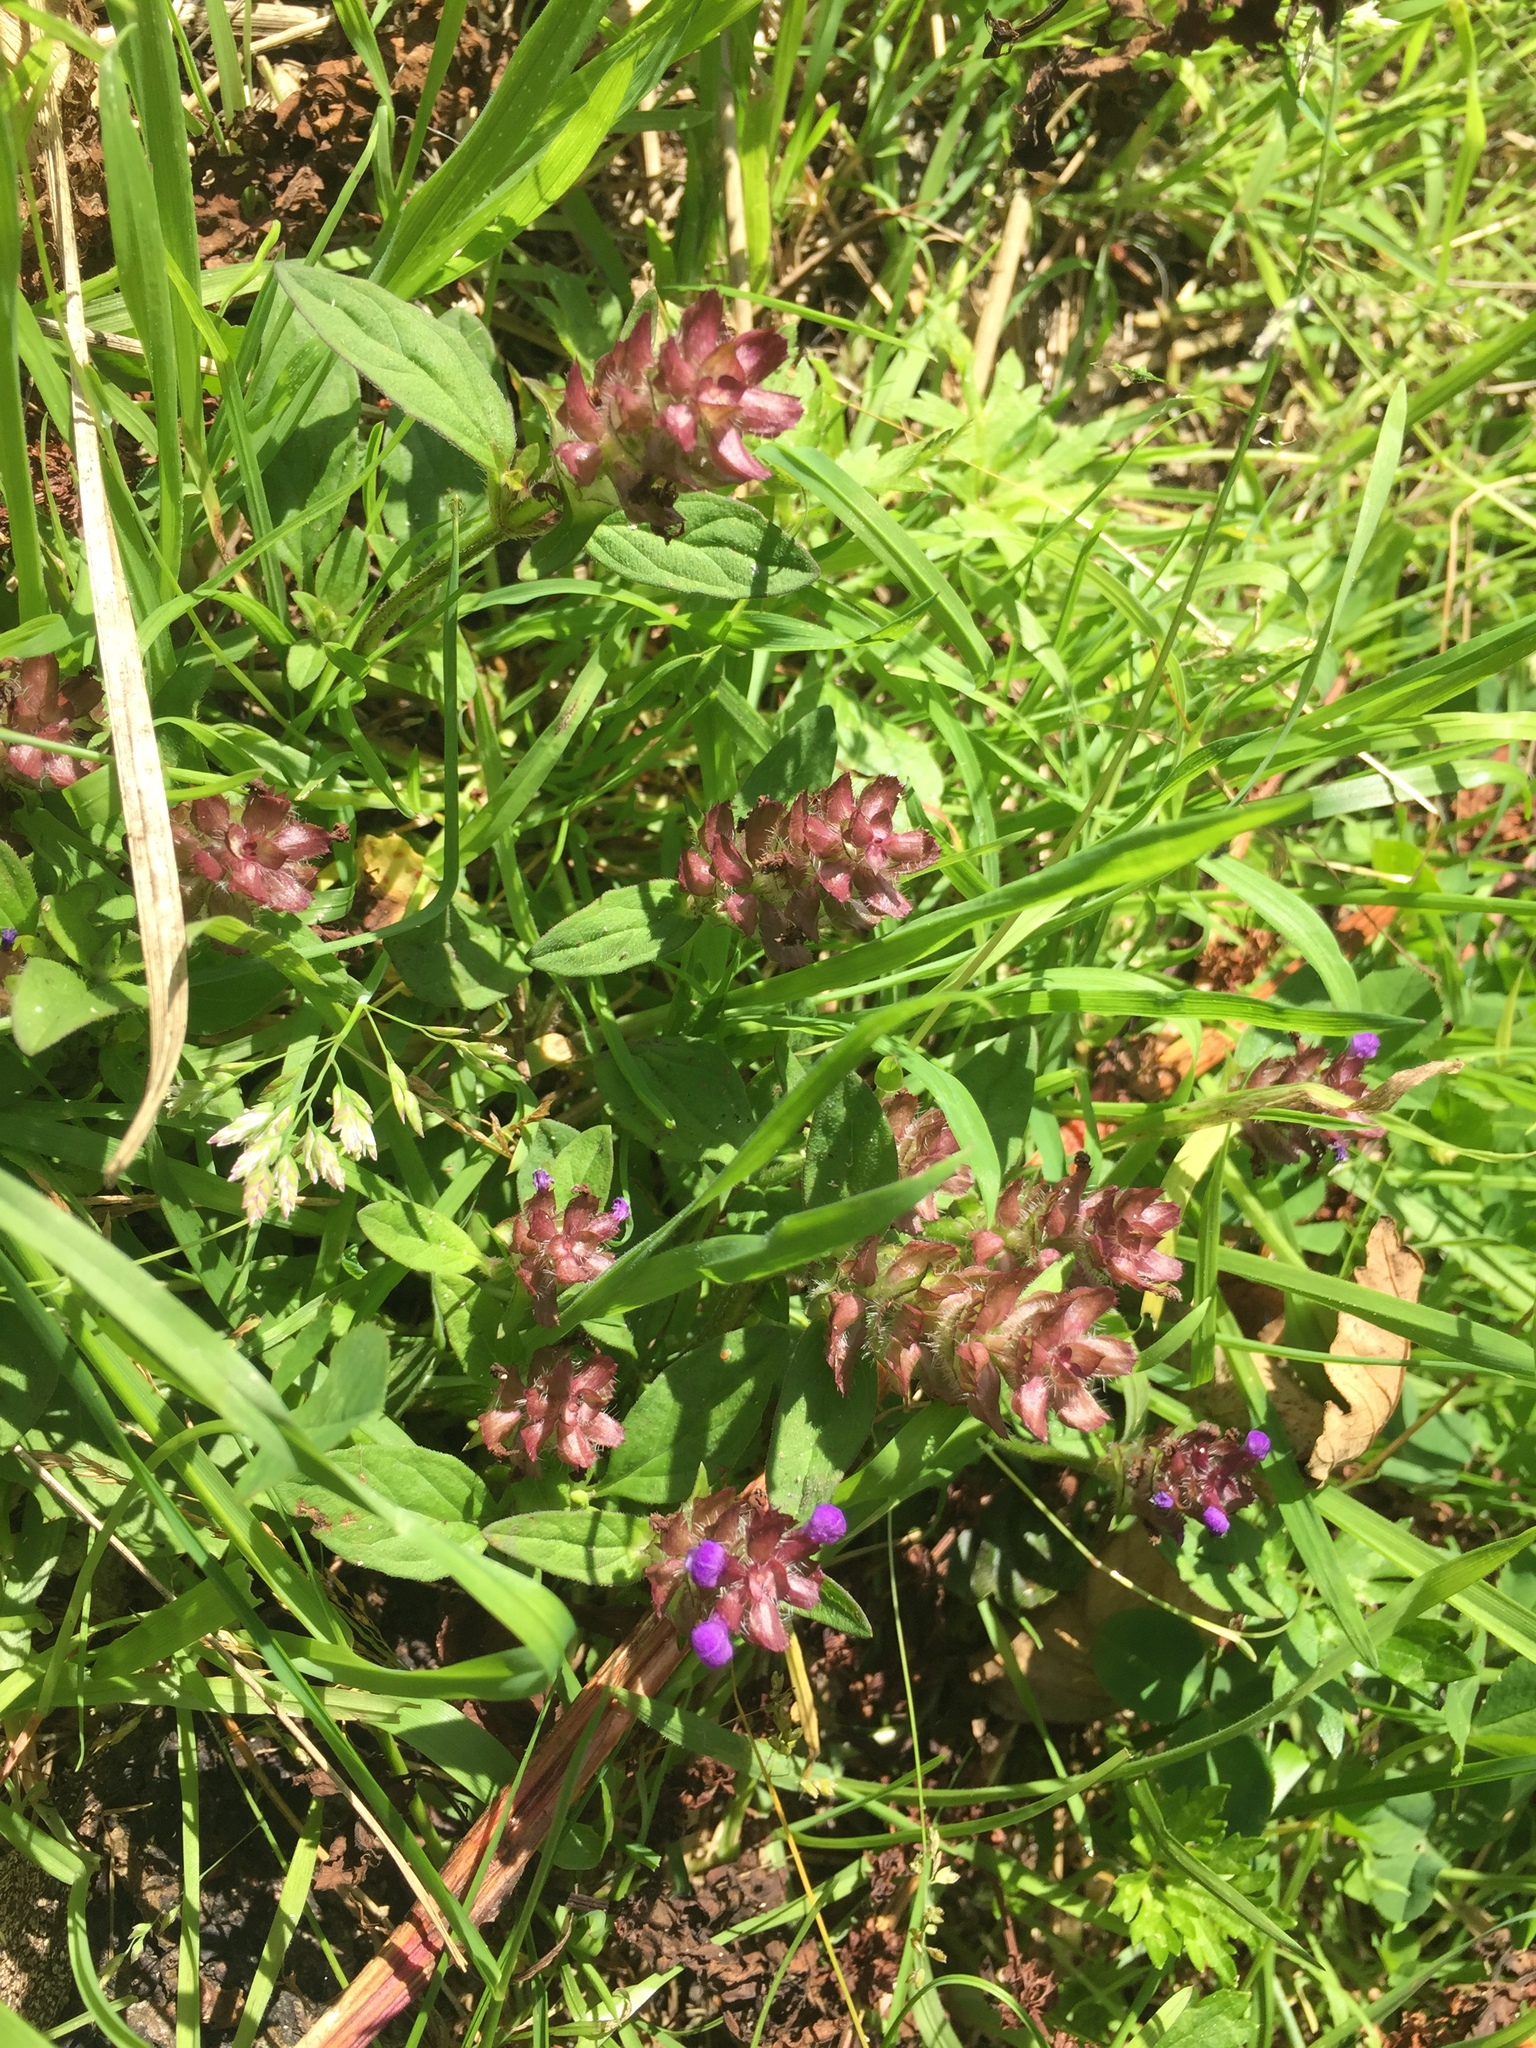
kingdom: Plantae
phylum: Tracheophyta
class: Magnoliopsida
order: Lamiales
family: Lamiaceae
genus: Prunella
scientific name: Prunella vulgaris
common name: Heal-all
